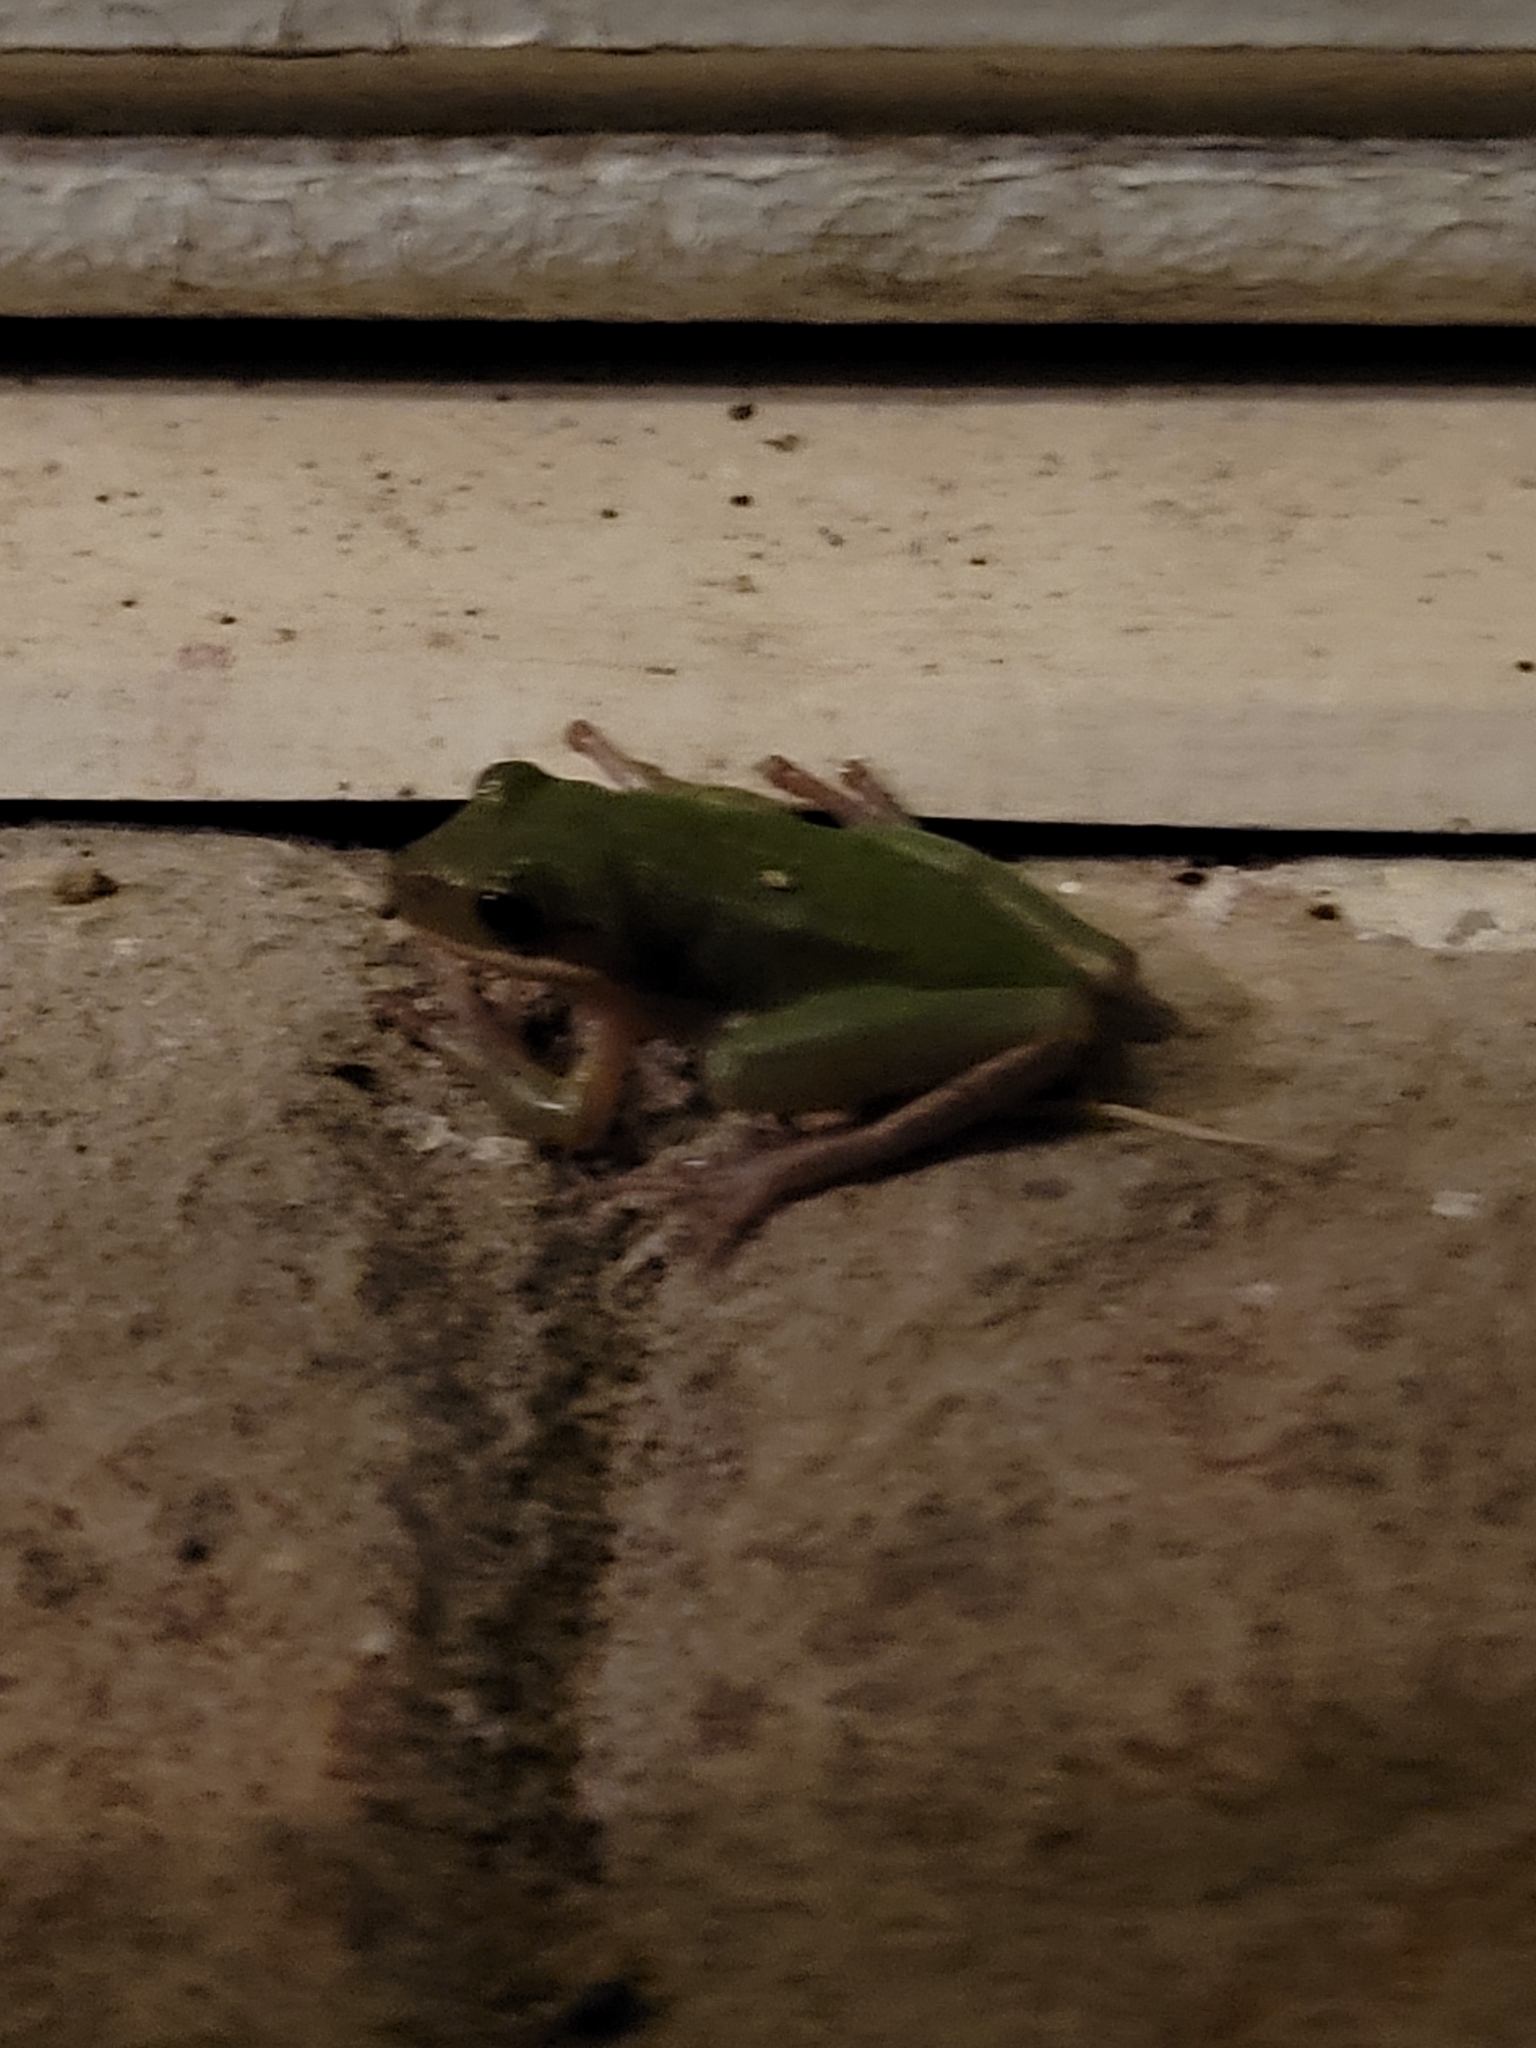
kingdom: Animalia
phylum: Chordata
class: Amphibia
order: Anura
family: Hylidae
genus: Dryophytes
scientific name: Dryophytes cinereus
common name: Green treefrog
